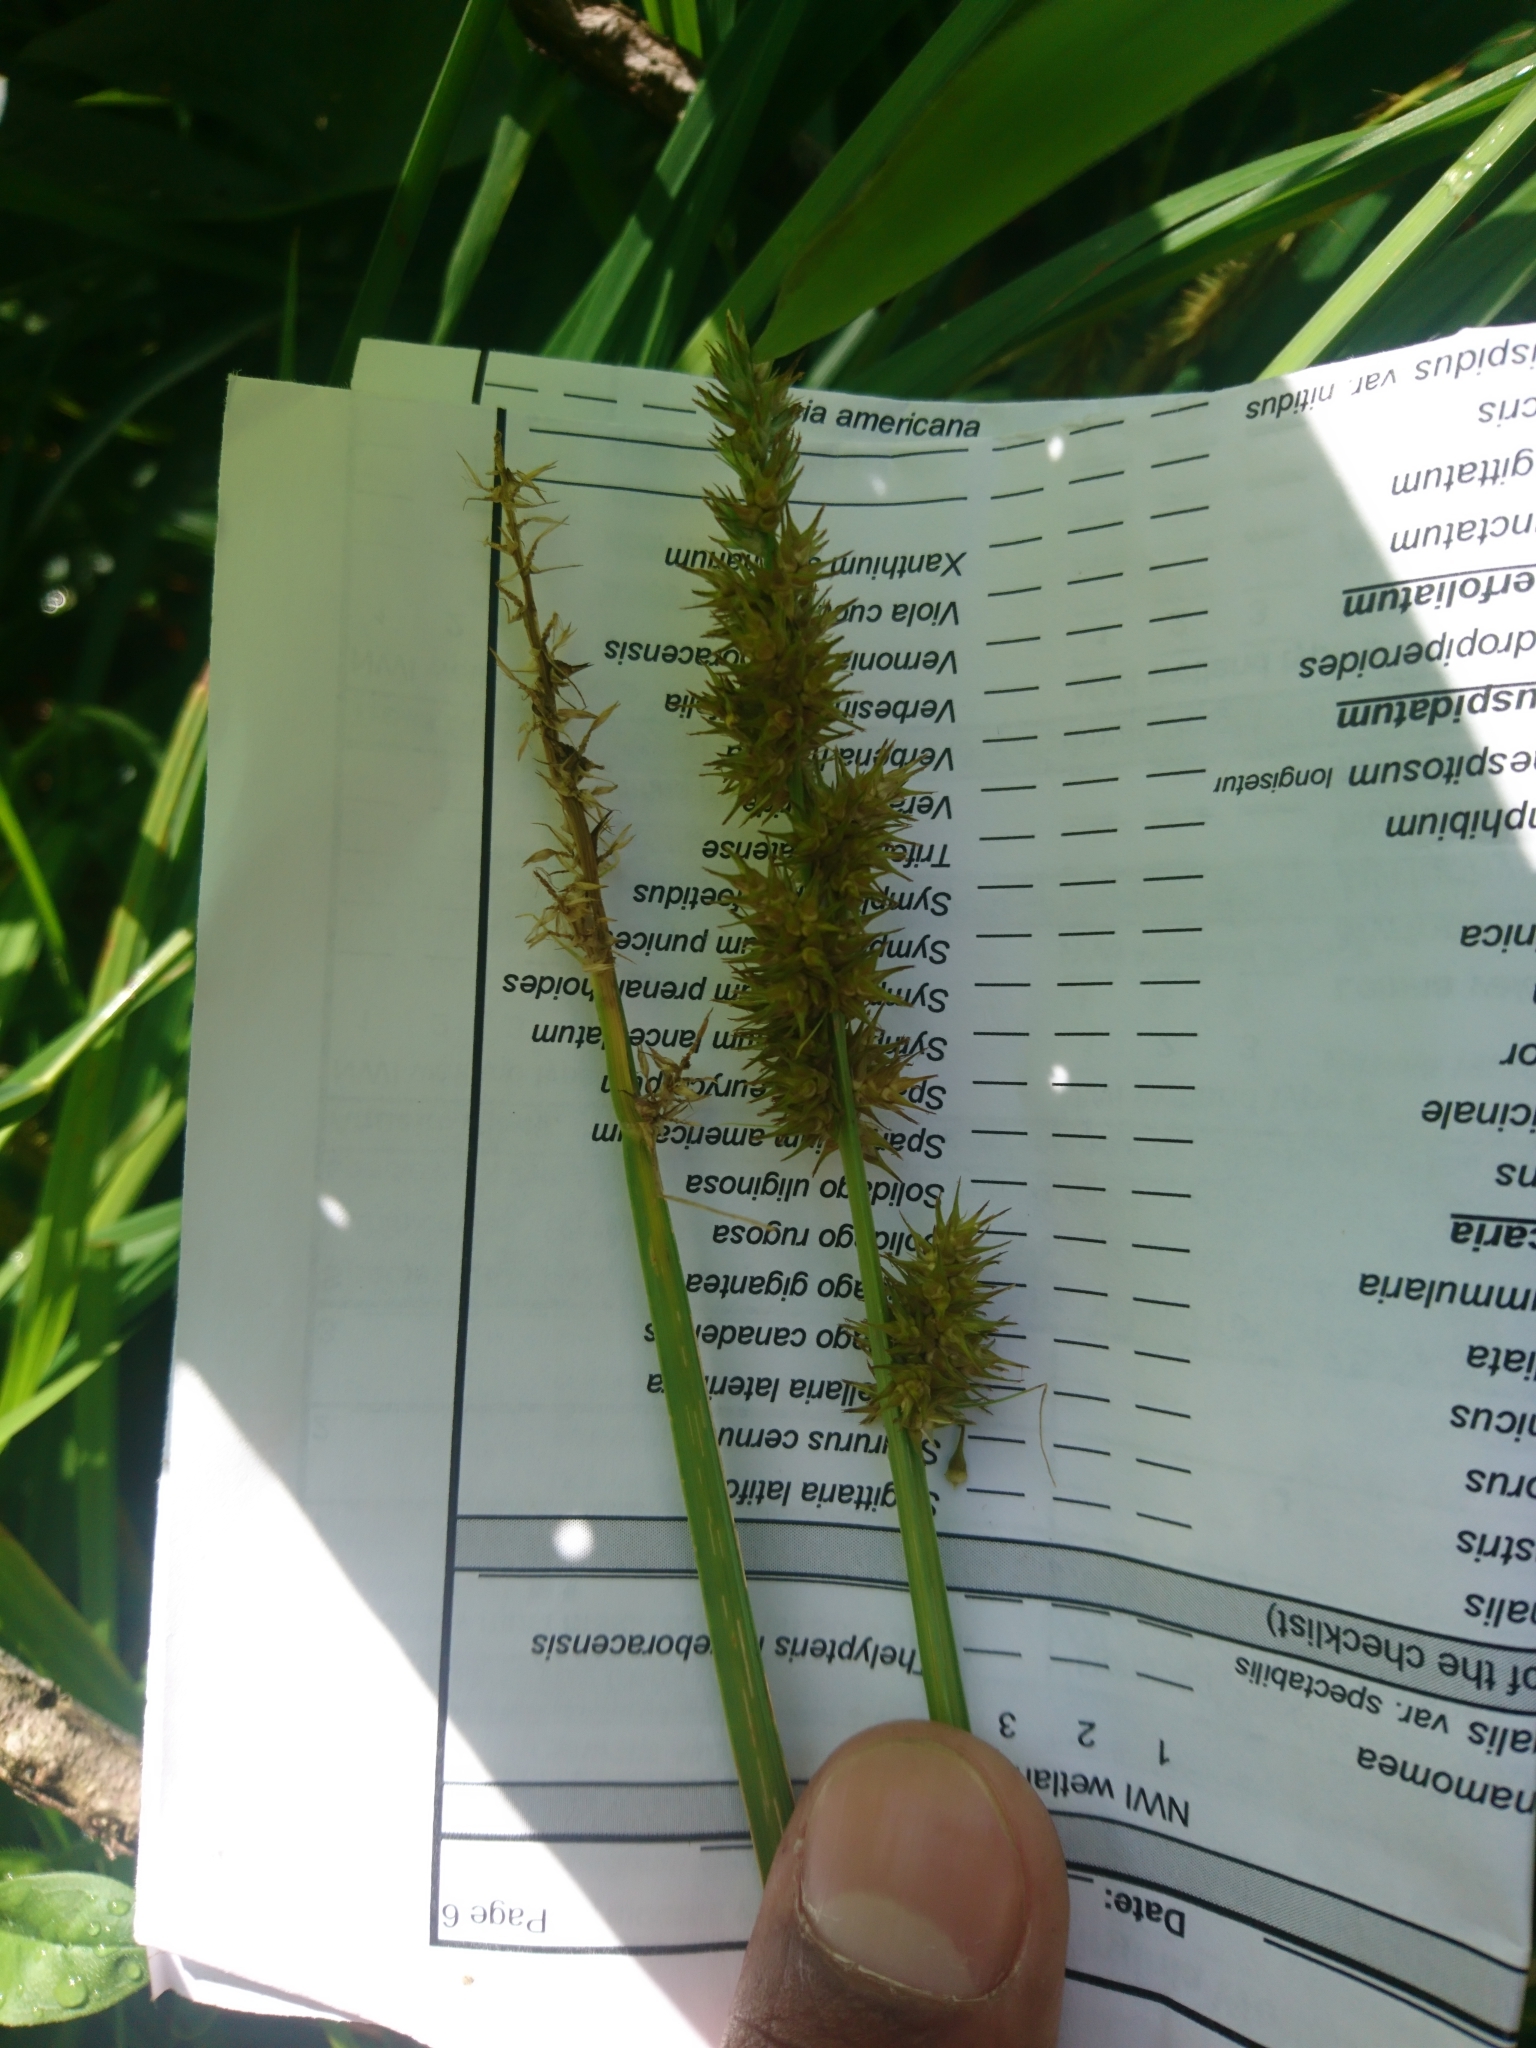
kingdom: Plantae
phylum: Tracheophyta
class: Liliopsida
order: Poales
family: Cyperaceae
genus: Carex
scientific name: Carex stipata
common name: Awl-fruited sedge
